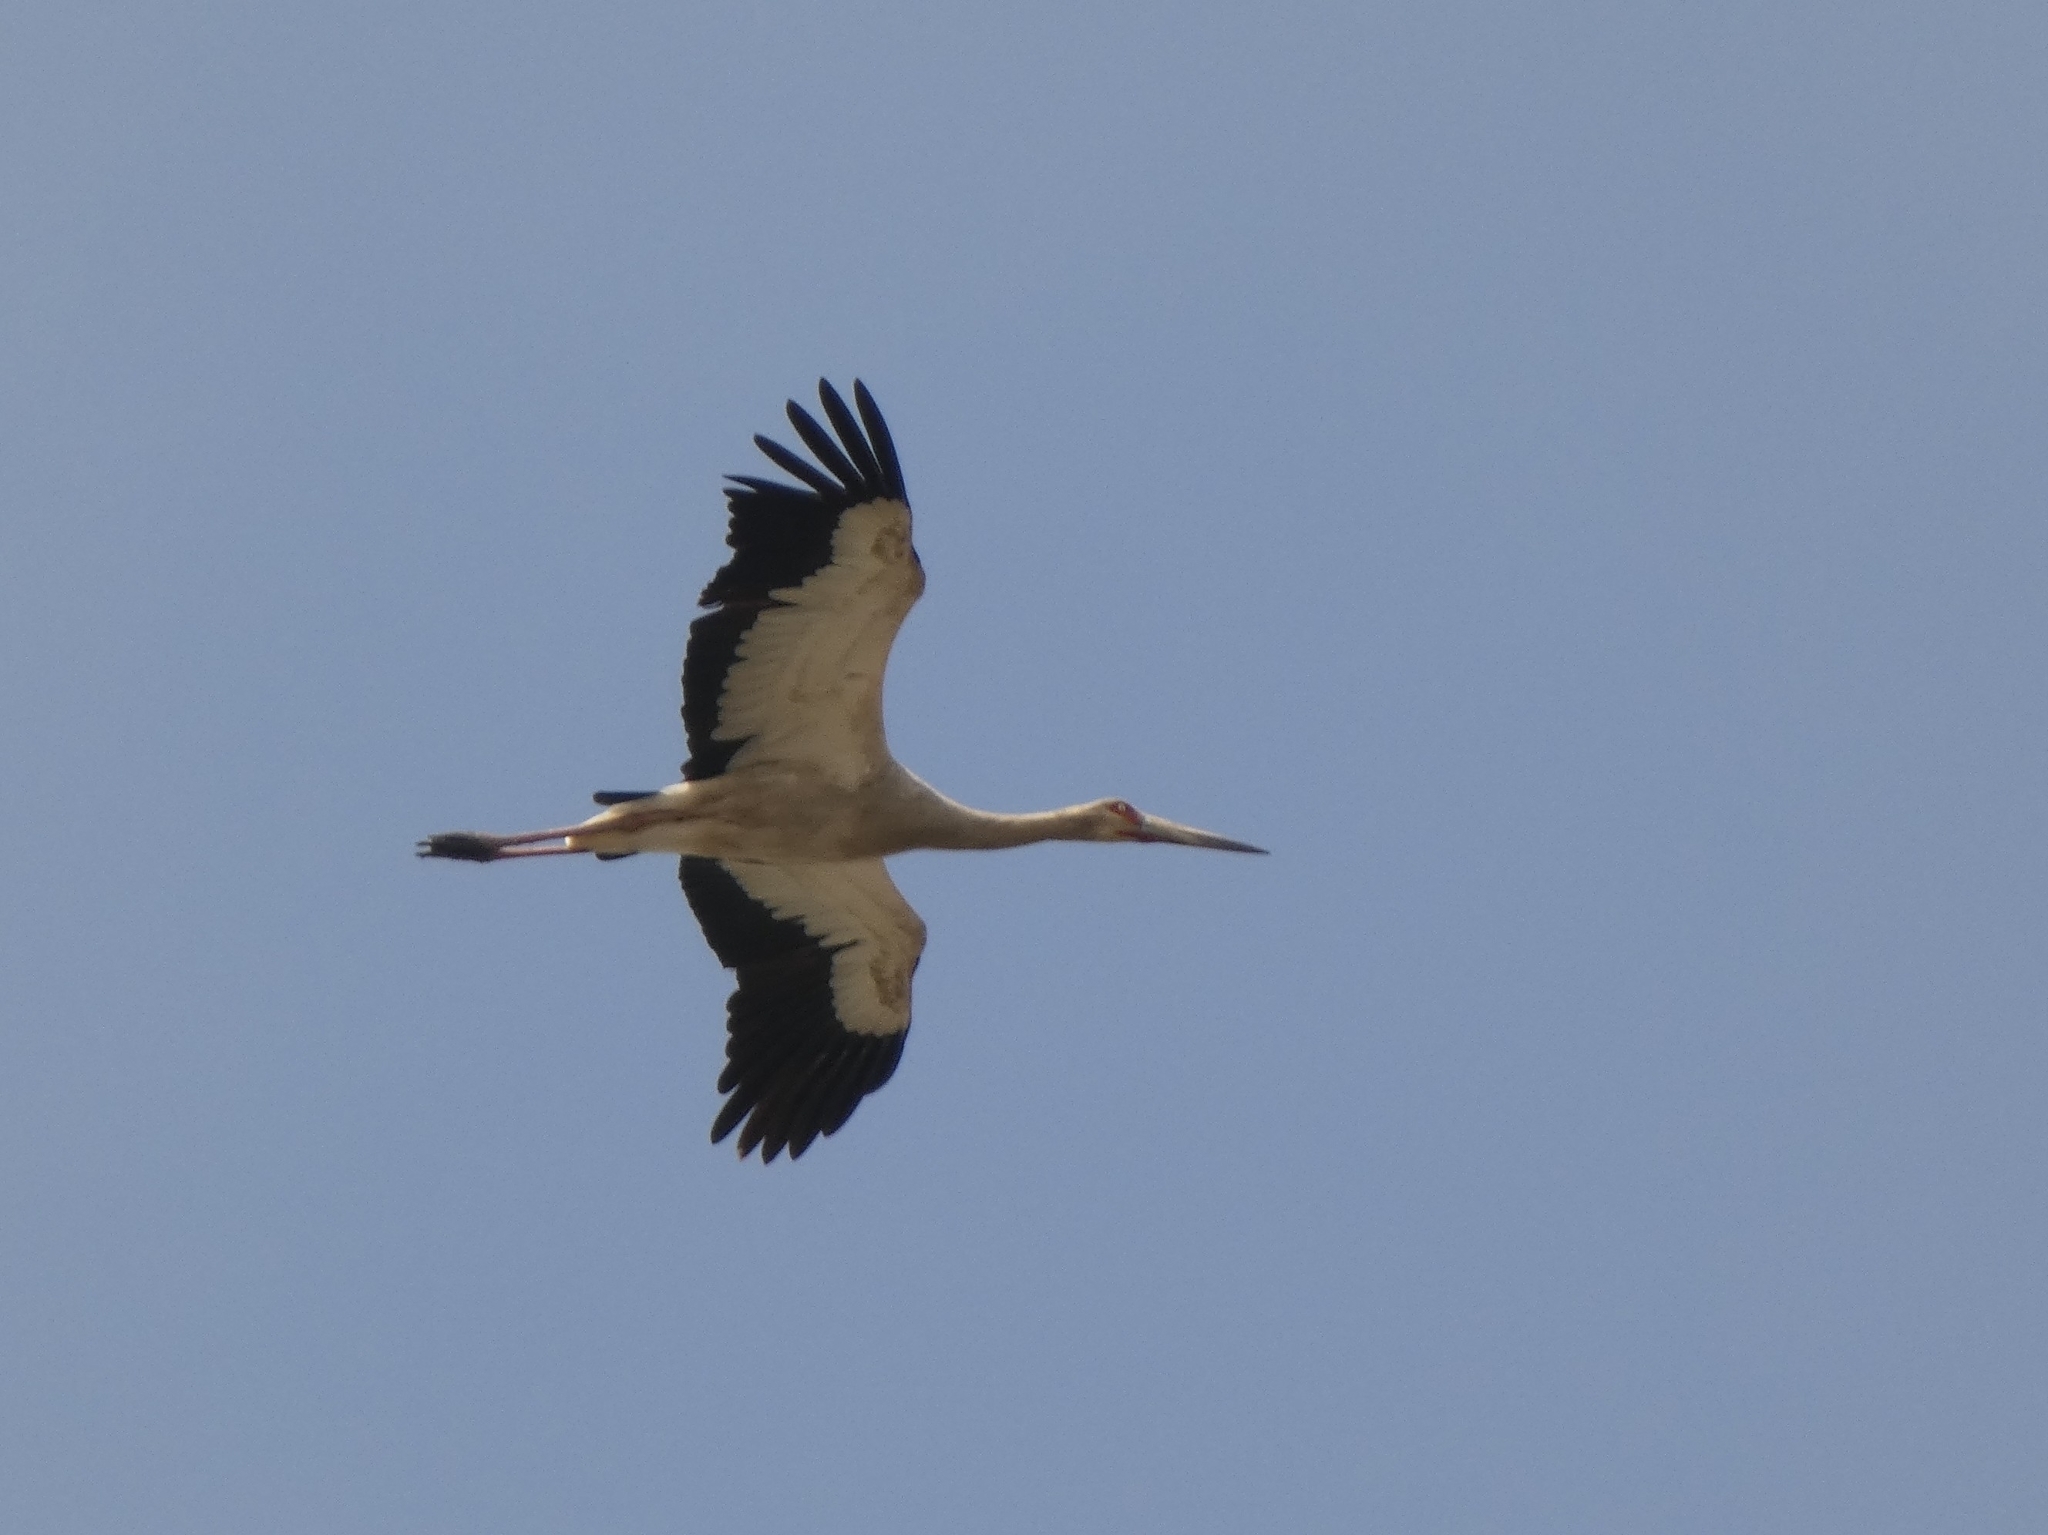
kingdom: Animalia
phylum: Chordata
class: Aves
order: Ciconiiformes
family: Ciconiidae
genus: Ciconia
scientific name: Ciconia maguari
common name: Maguari stork
